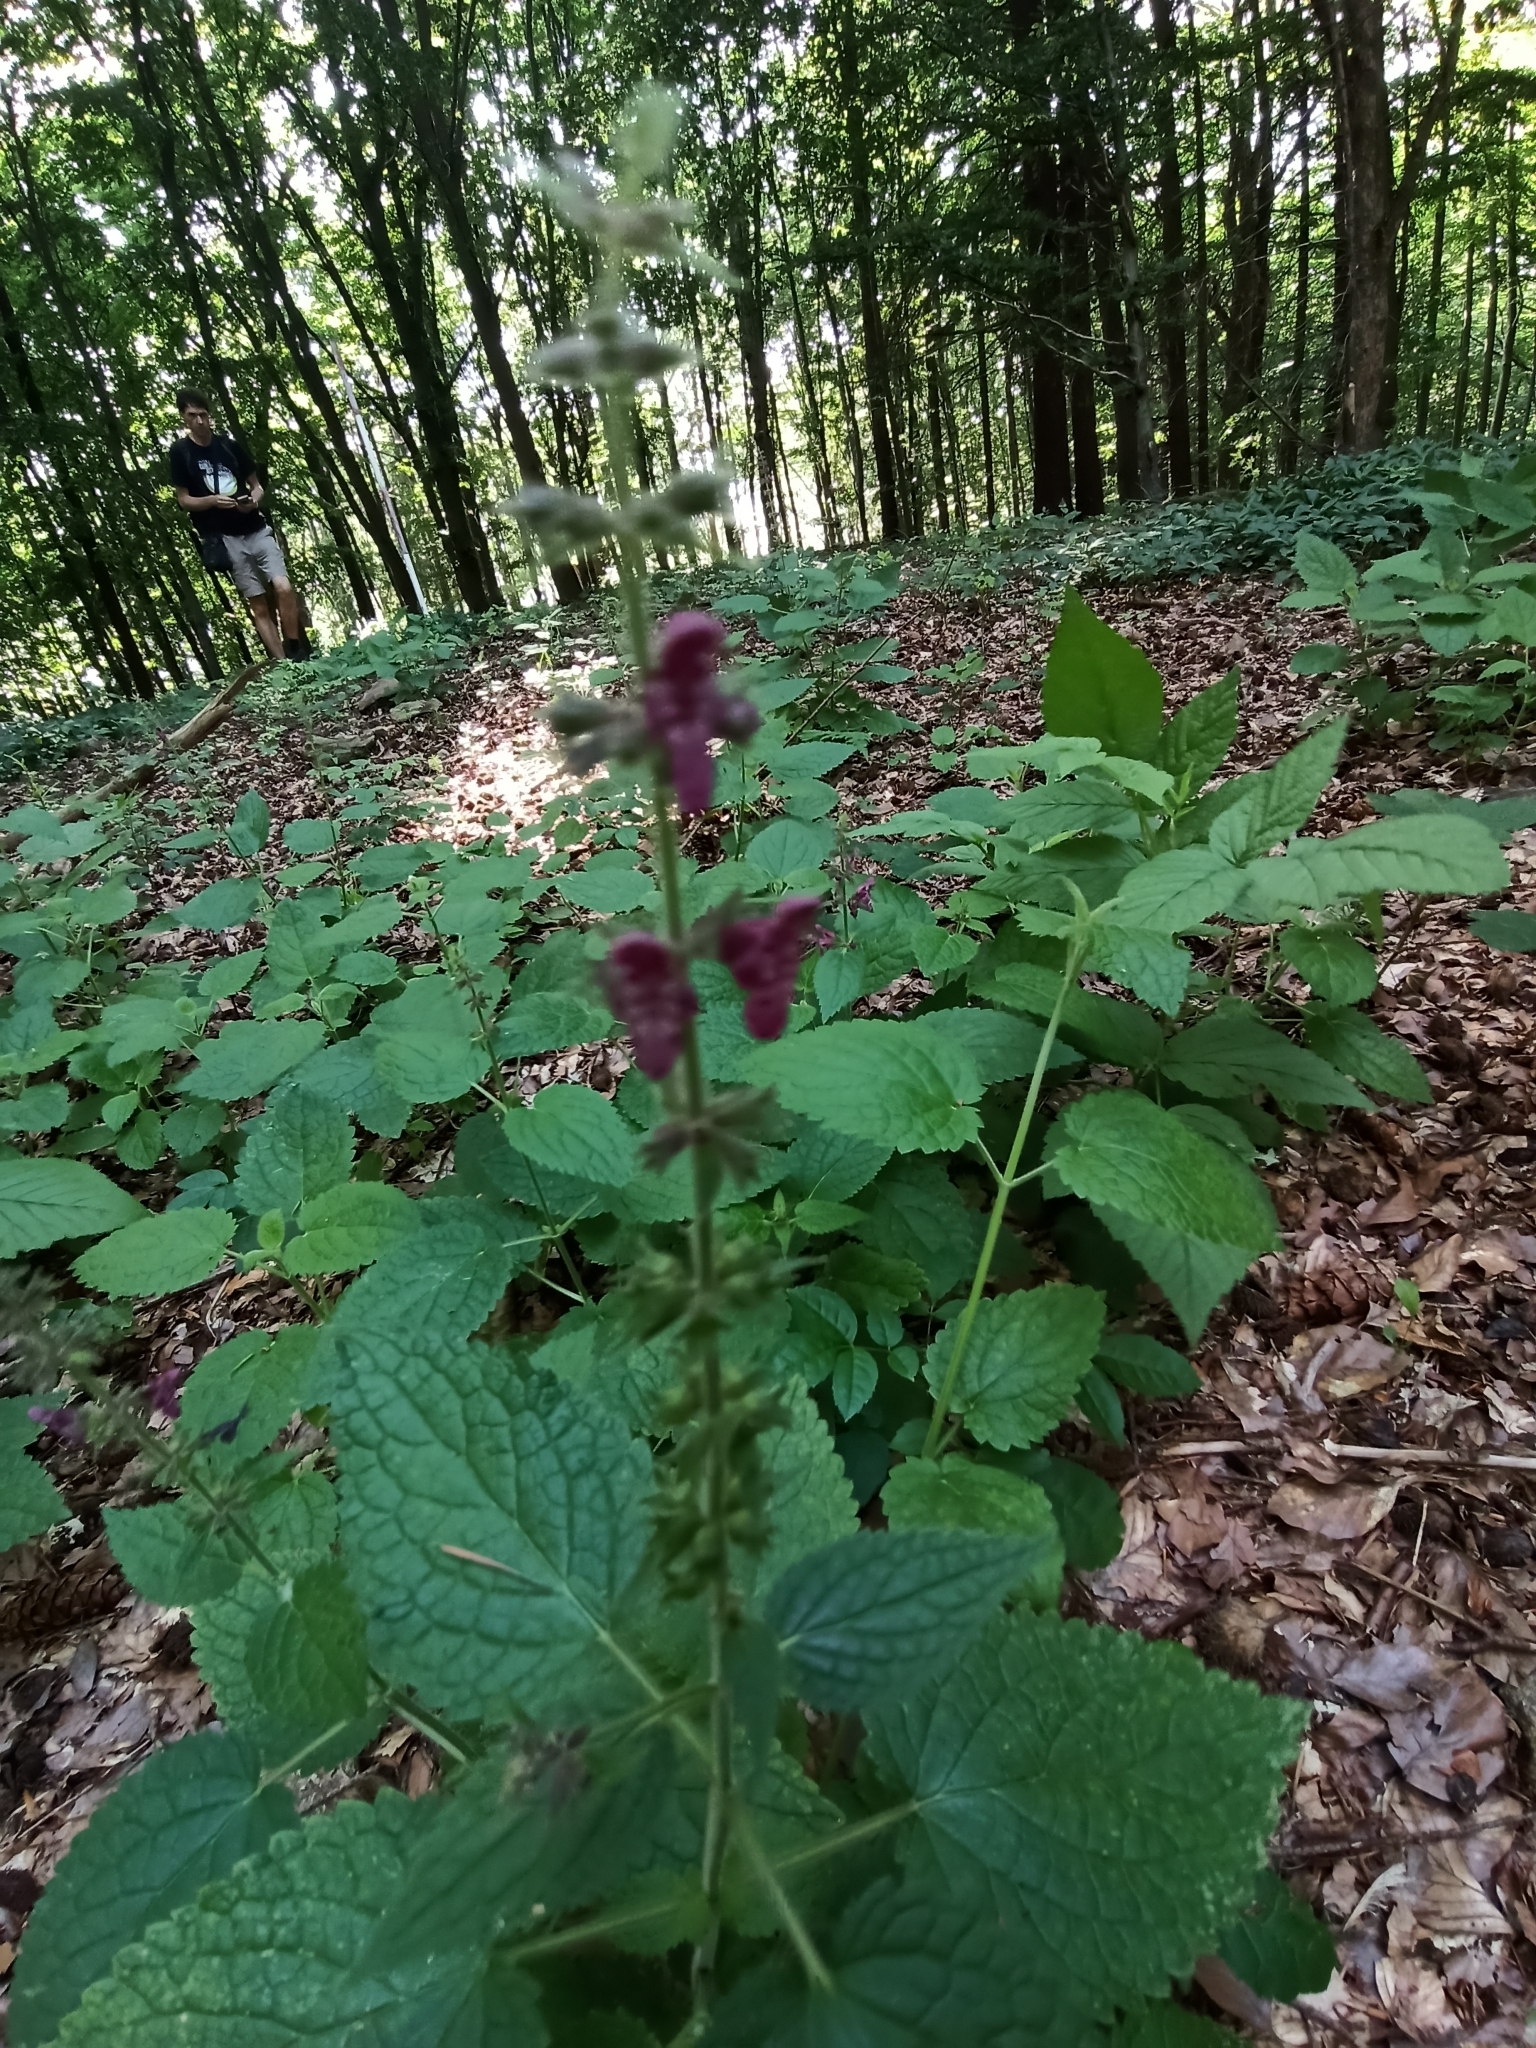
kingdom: Plantae
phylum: Tracheophyta
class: Magnoliopsida
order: Lamiales
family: Lamiaceae
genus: Stachys
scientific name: Stachys sylvatica
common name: Hedge woundwort
